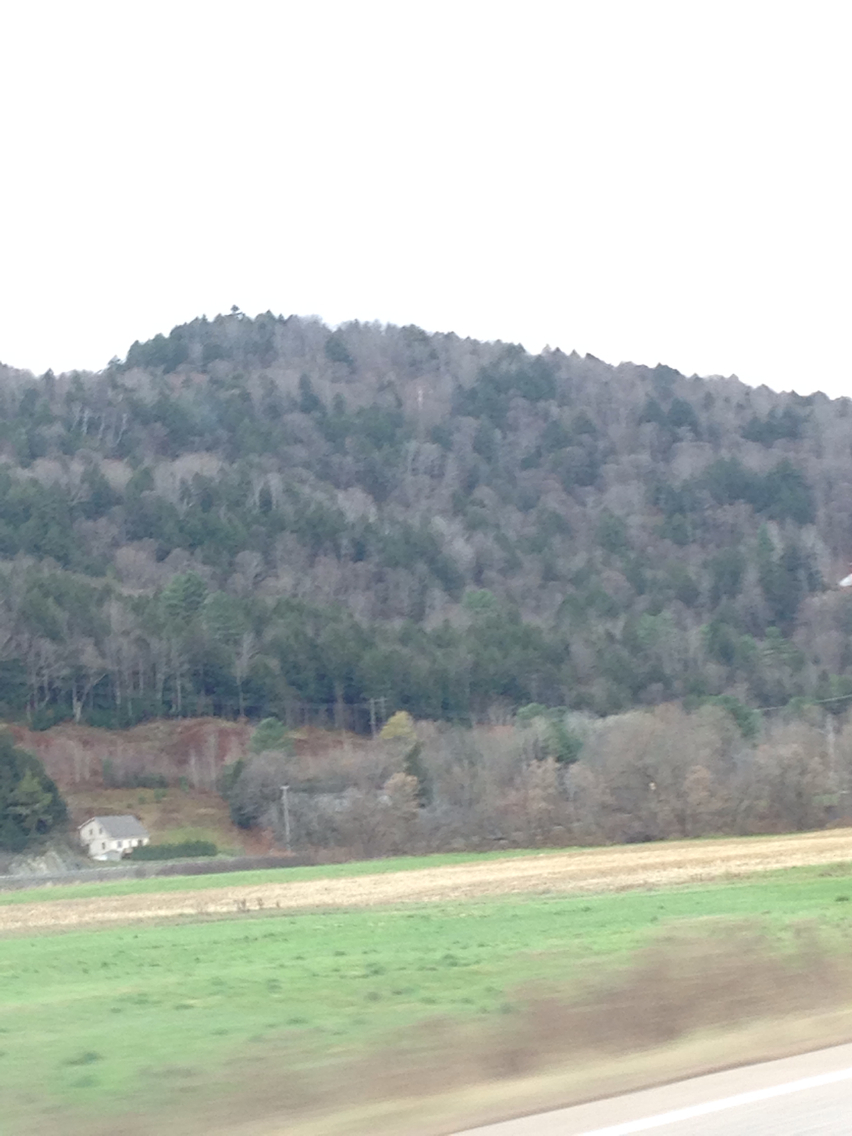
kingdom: Plantae
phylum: Tracheophyta
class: Pinopsida
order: Pinales
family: Pinaceae
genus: Tsuga
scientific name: Tsuga canadensis
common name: Eastern hemlock
